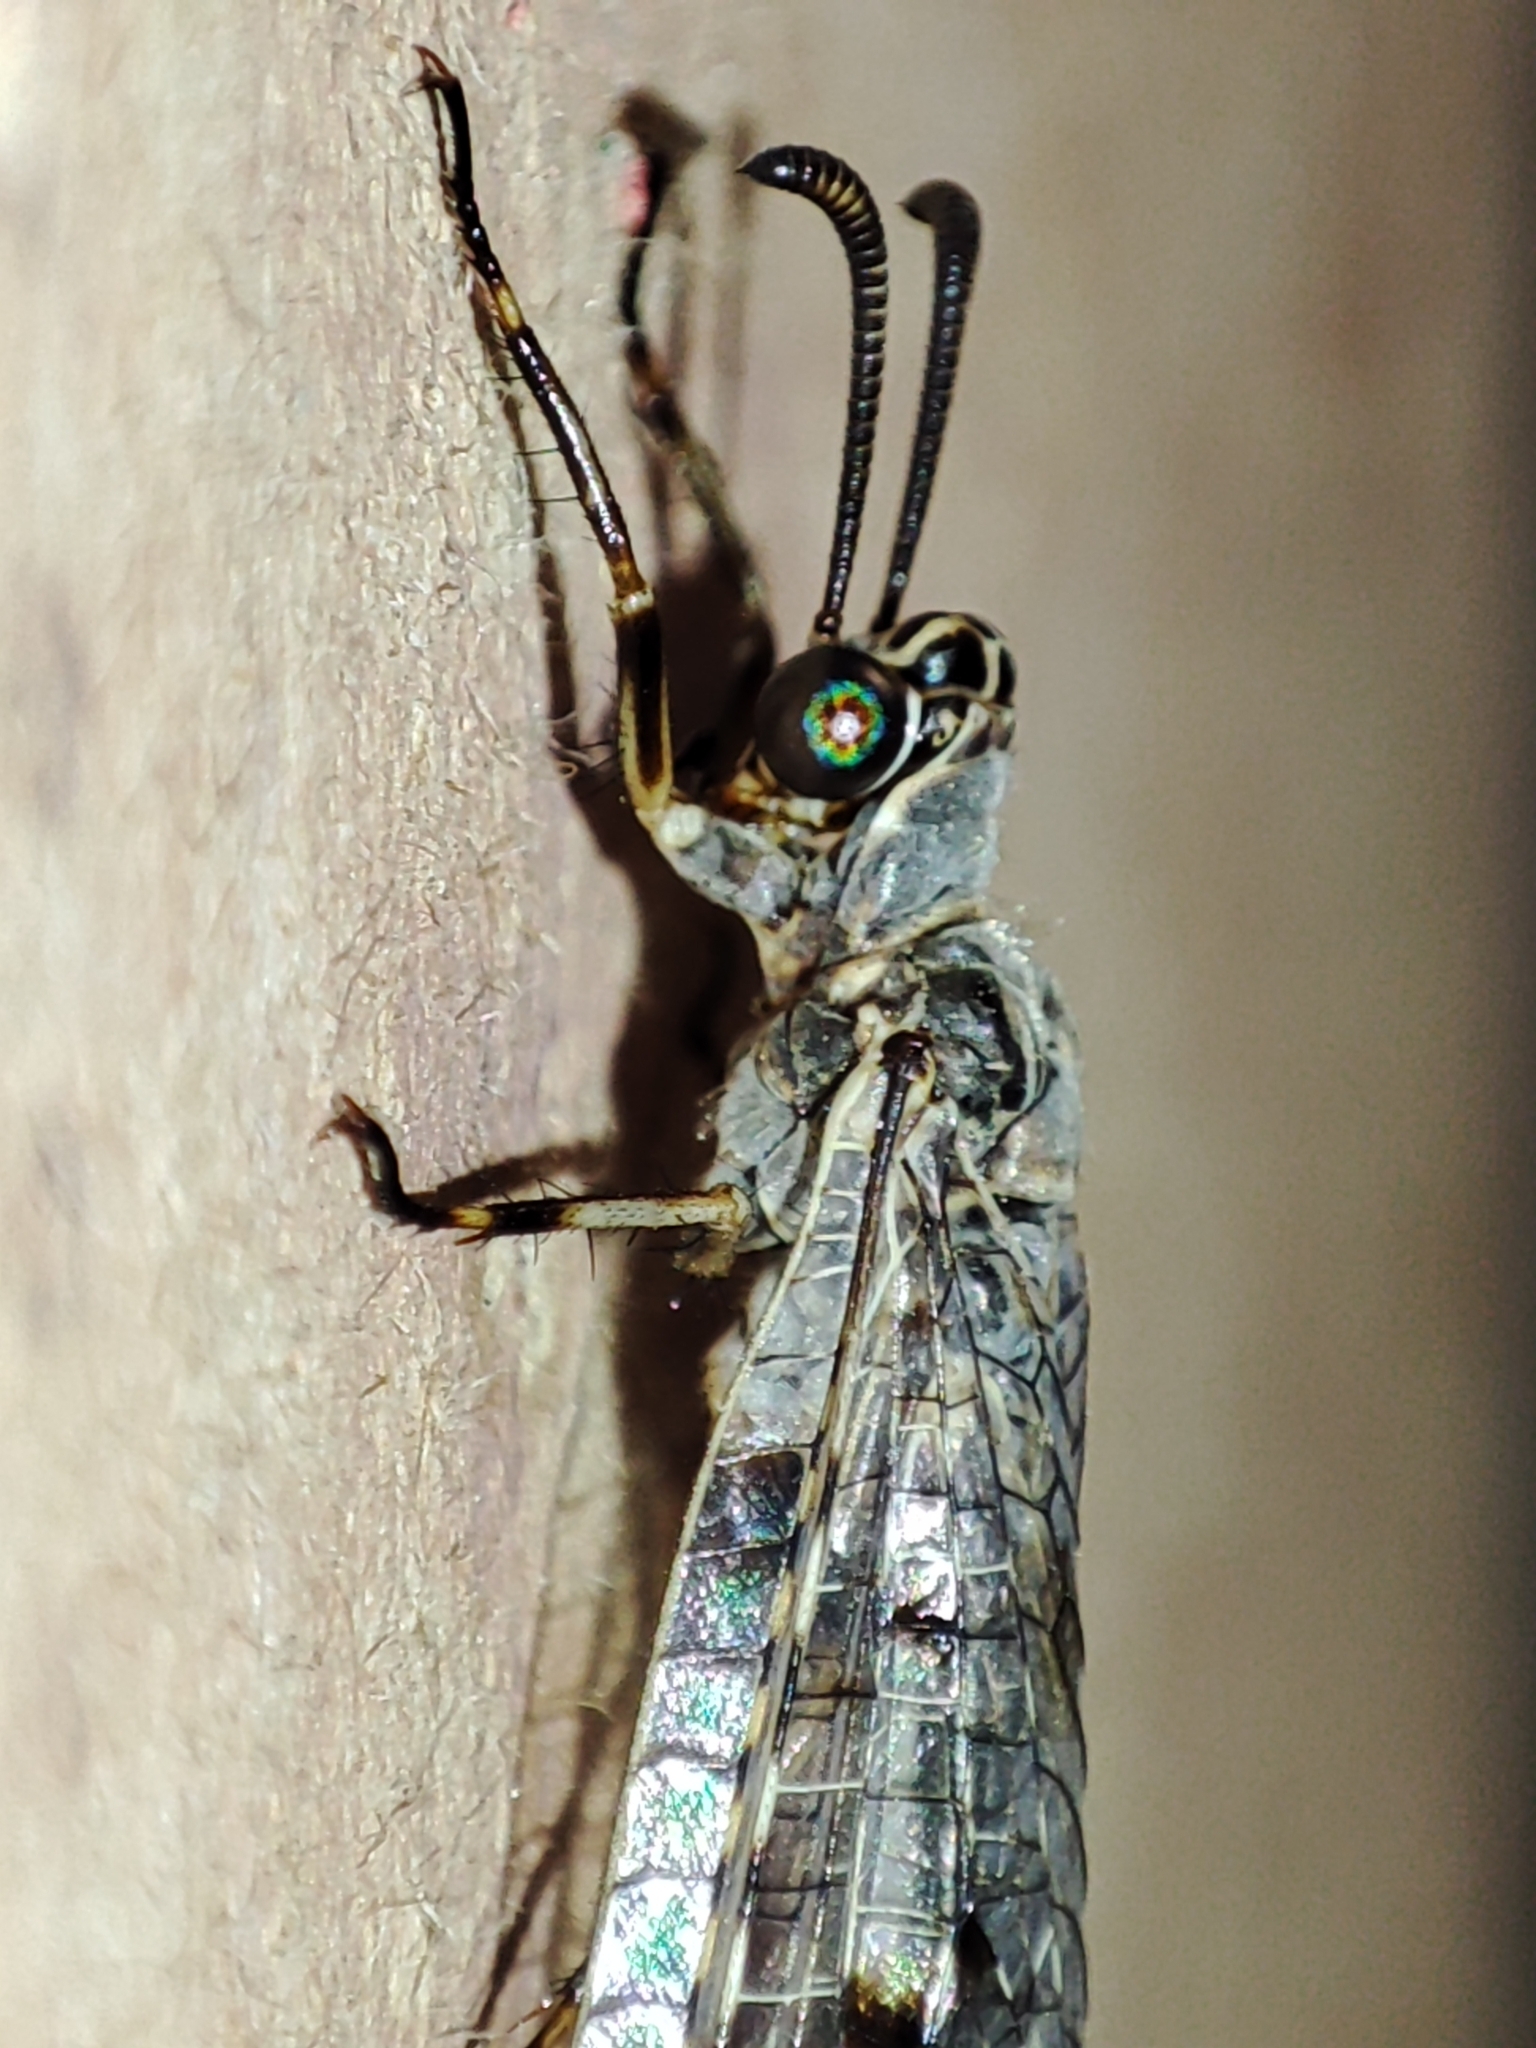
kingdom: Animalia
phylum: Arthropoda
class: Insecta
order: Neuroptera
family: Myrmeleontidae
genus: Euroleon
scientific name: Euroleon nostras
